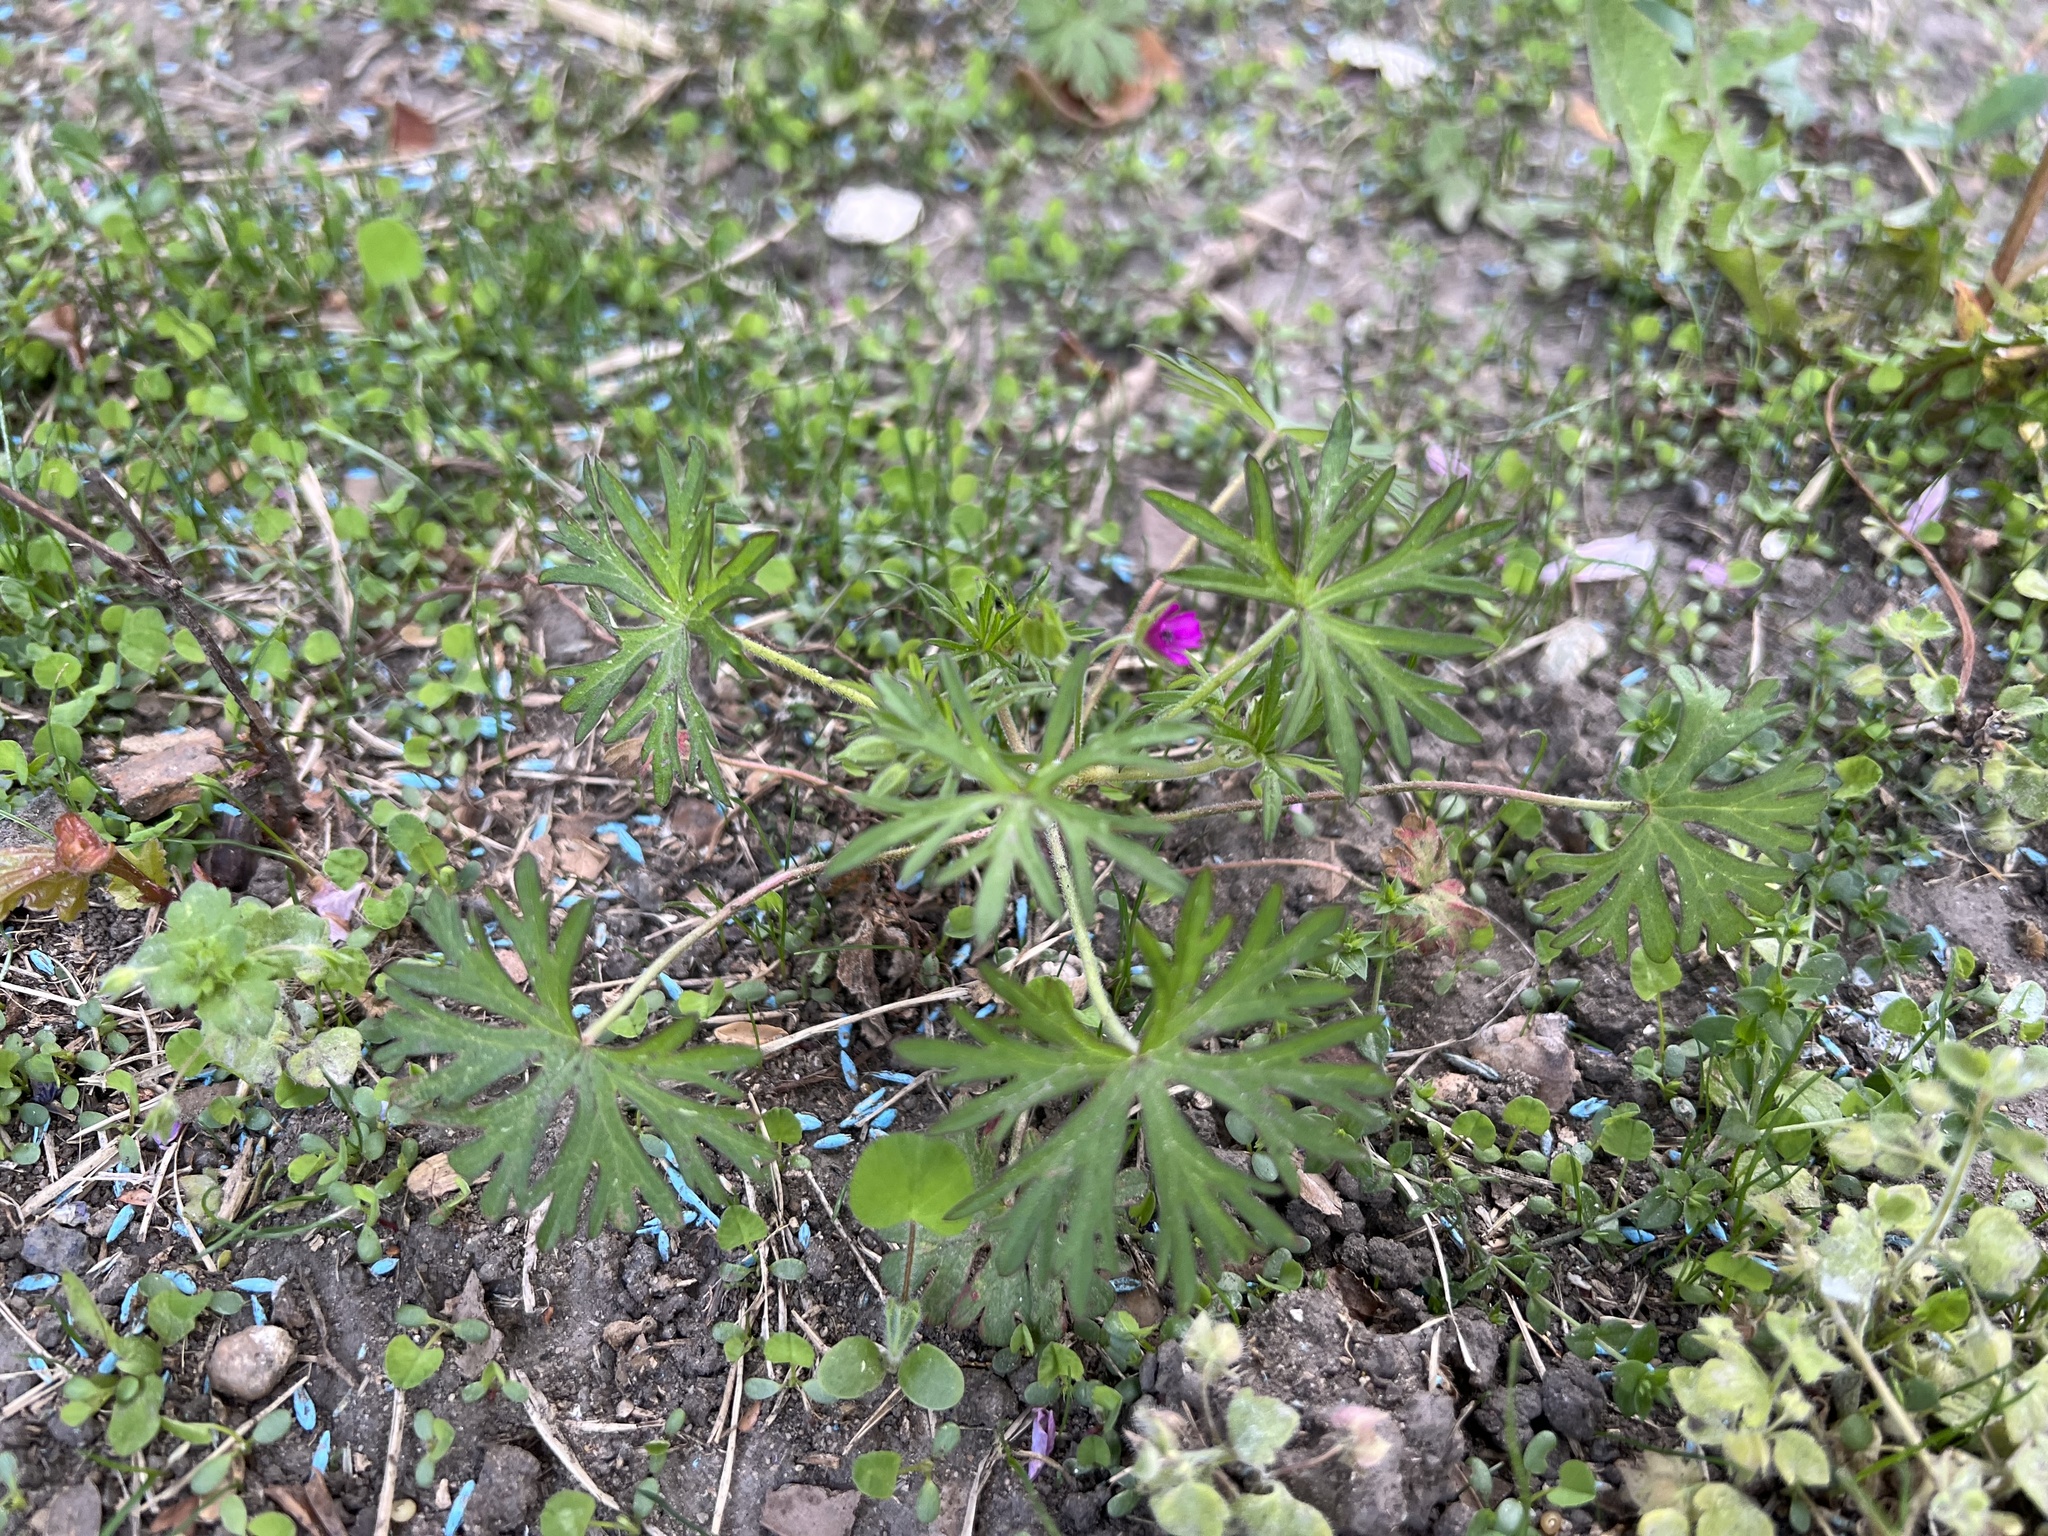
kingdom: Plantae
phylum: Tracheophyta
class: Magnoliopsida
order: Geraniales
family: Geraniaceae
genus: Geranium
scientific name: Geranium dissectum
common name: Cut-leaved crane's-bill
